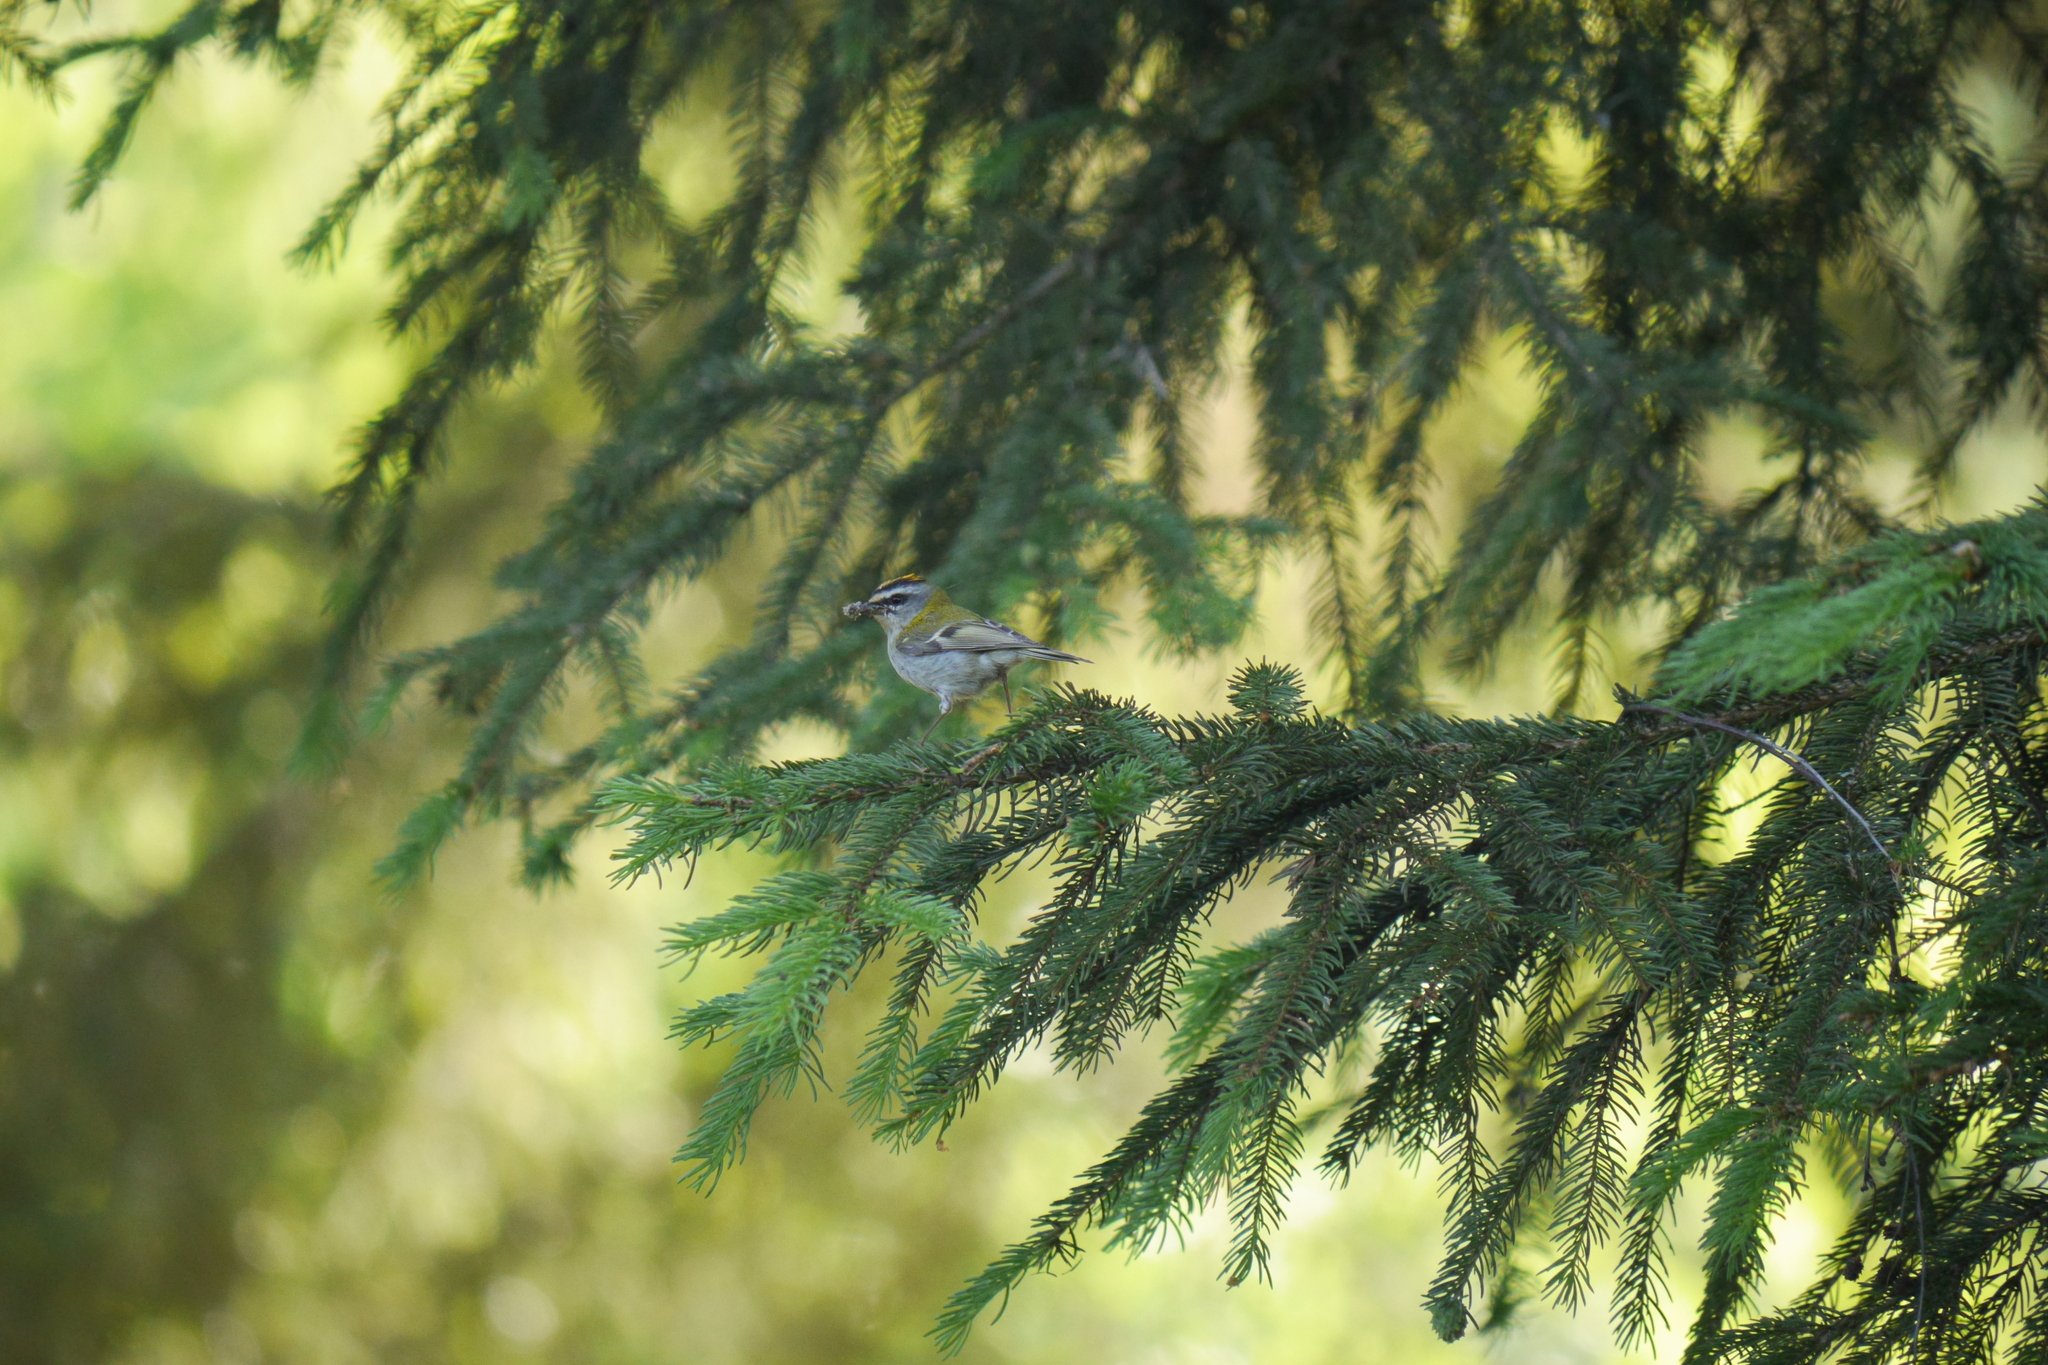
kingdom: Animalia
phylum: Chordata
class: Aves
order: Passeriformes
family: Regulidae
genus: Regulus
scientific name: Regulus ignicapilla
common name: Firecrest
